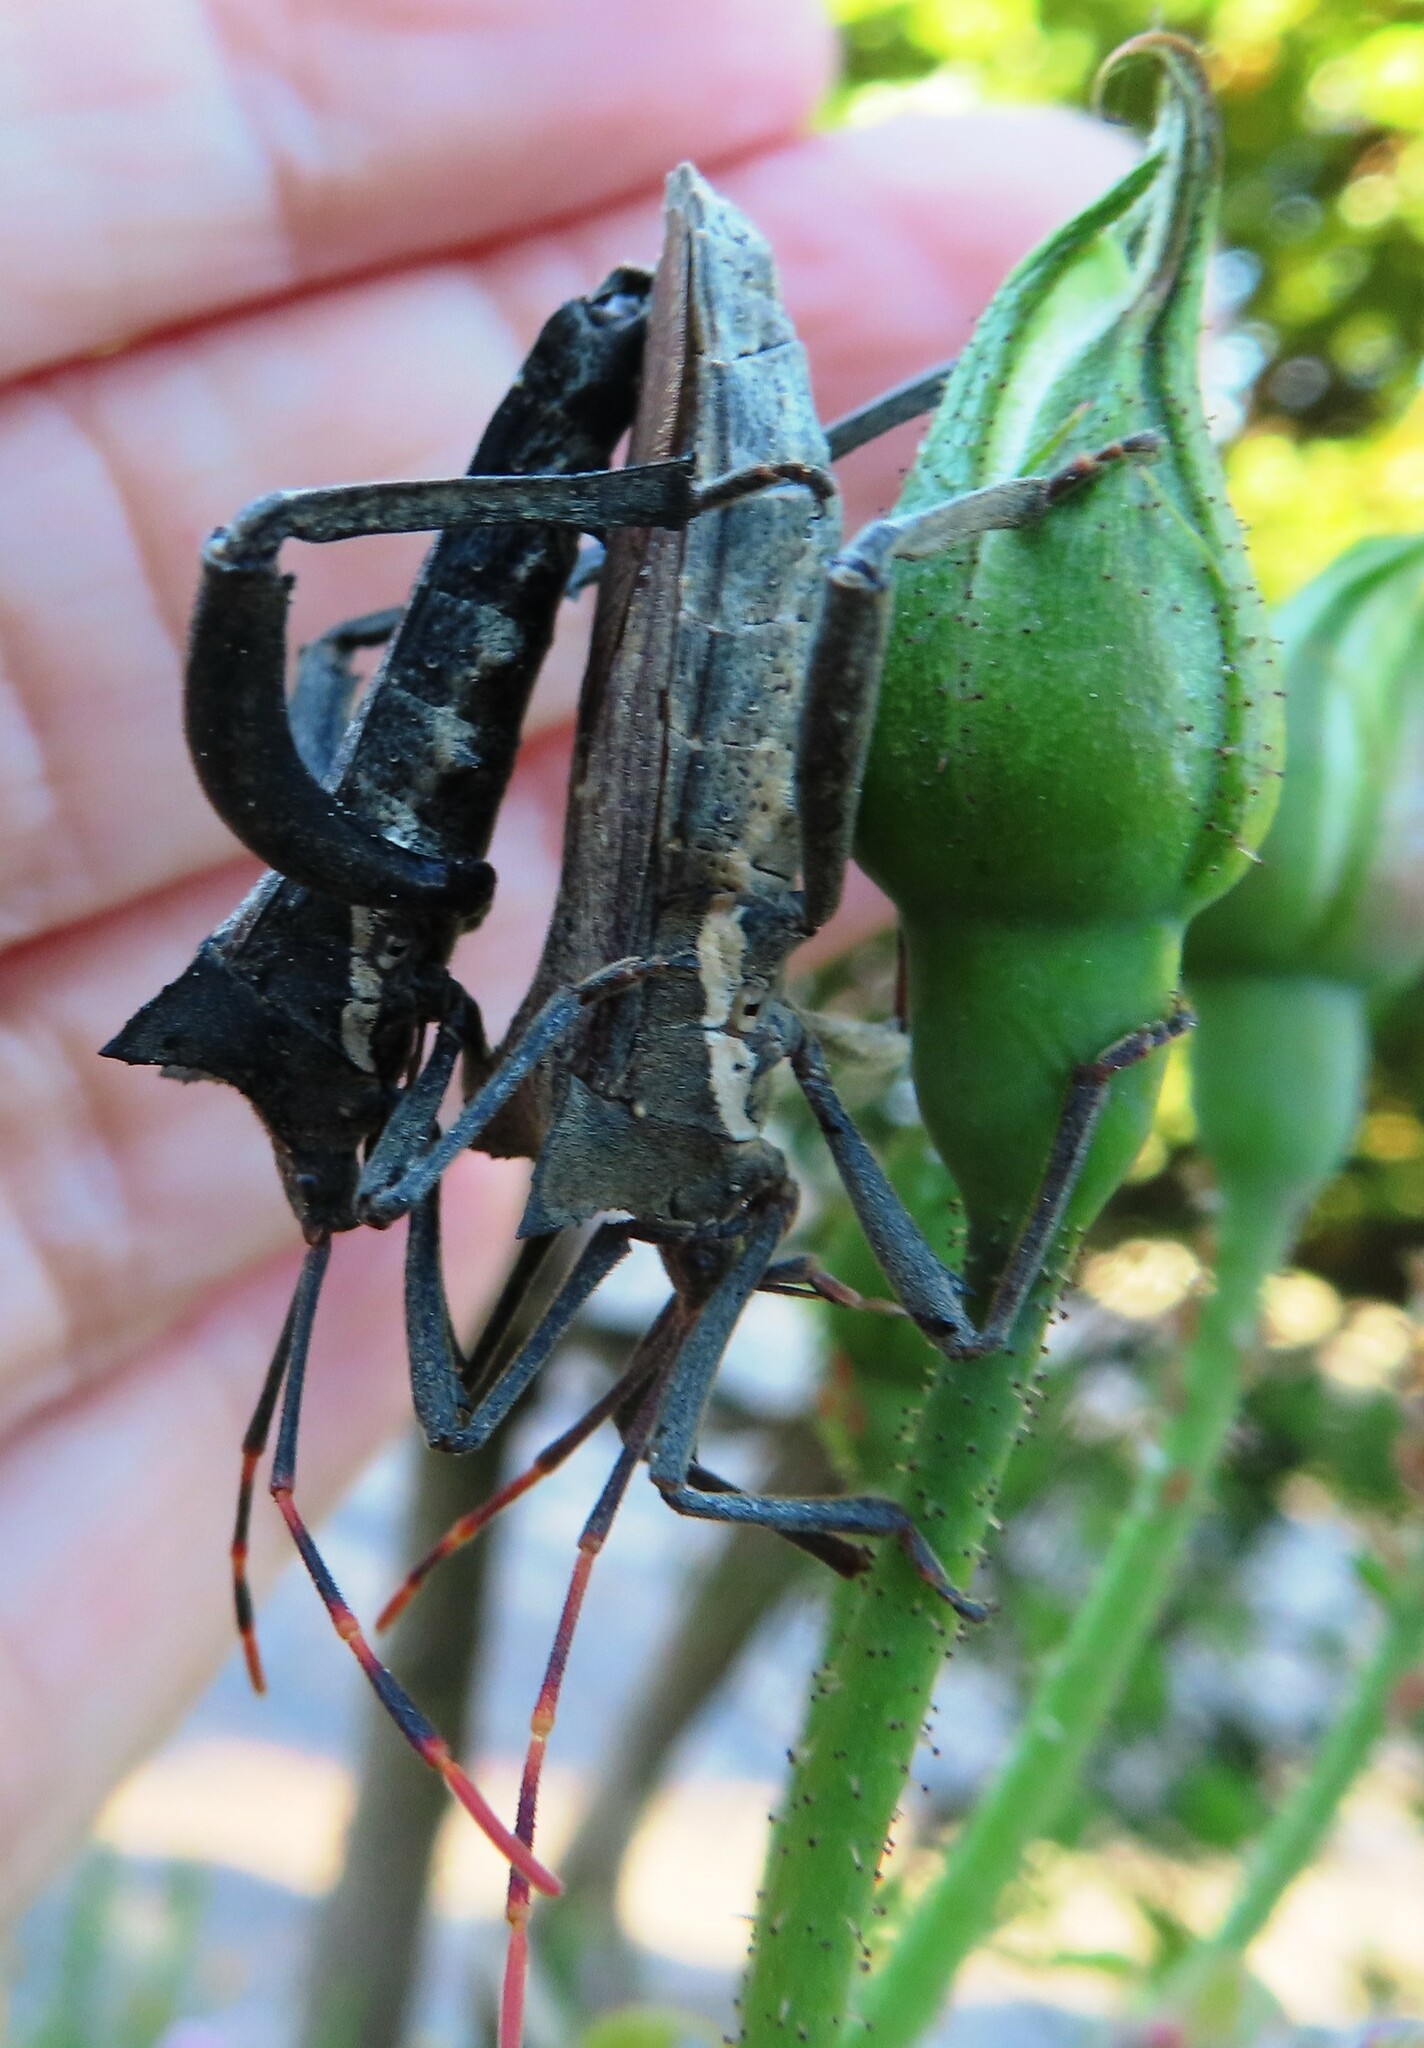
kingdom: Animalia
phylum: Arthropoda
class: Insecta
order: Hemiptera
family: Coreidae
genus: Elasmopoda
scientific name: Elasmopoda valga
